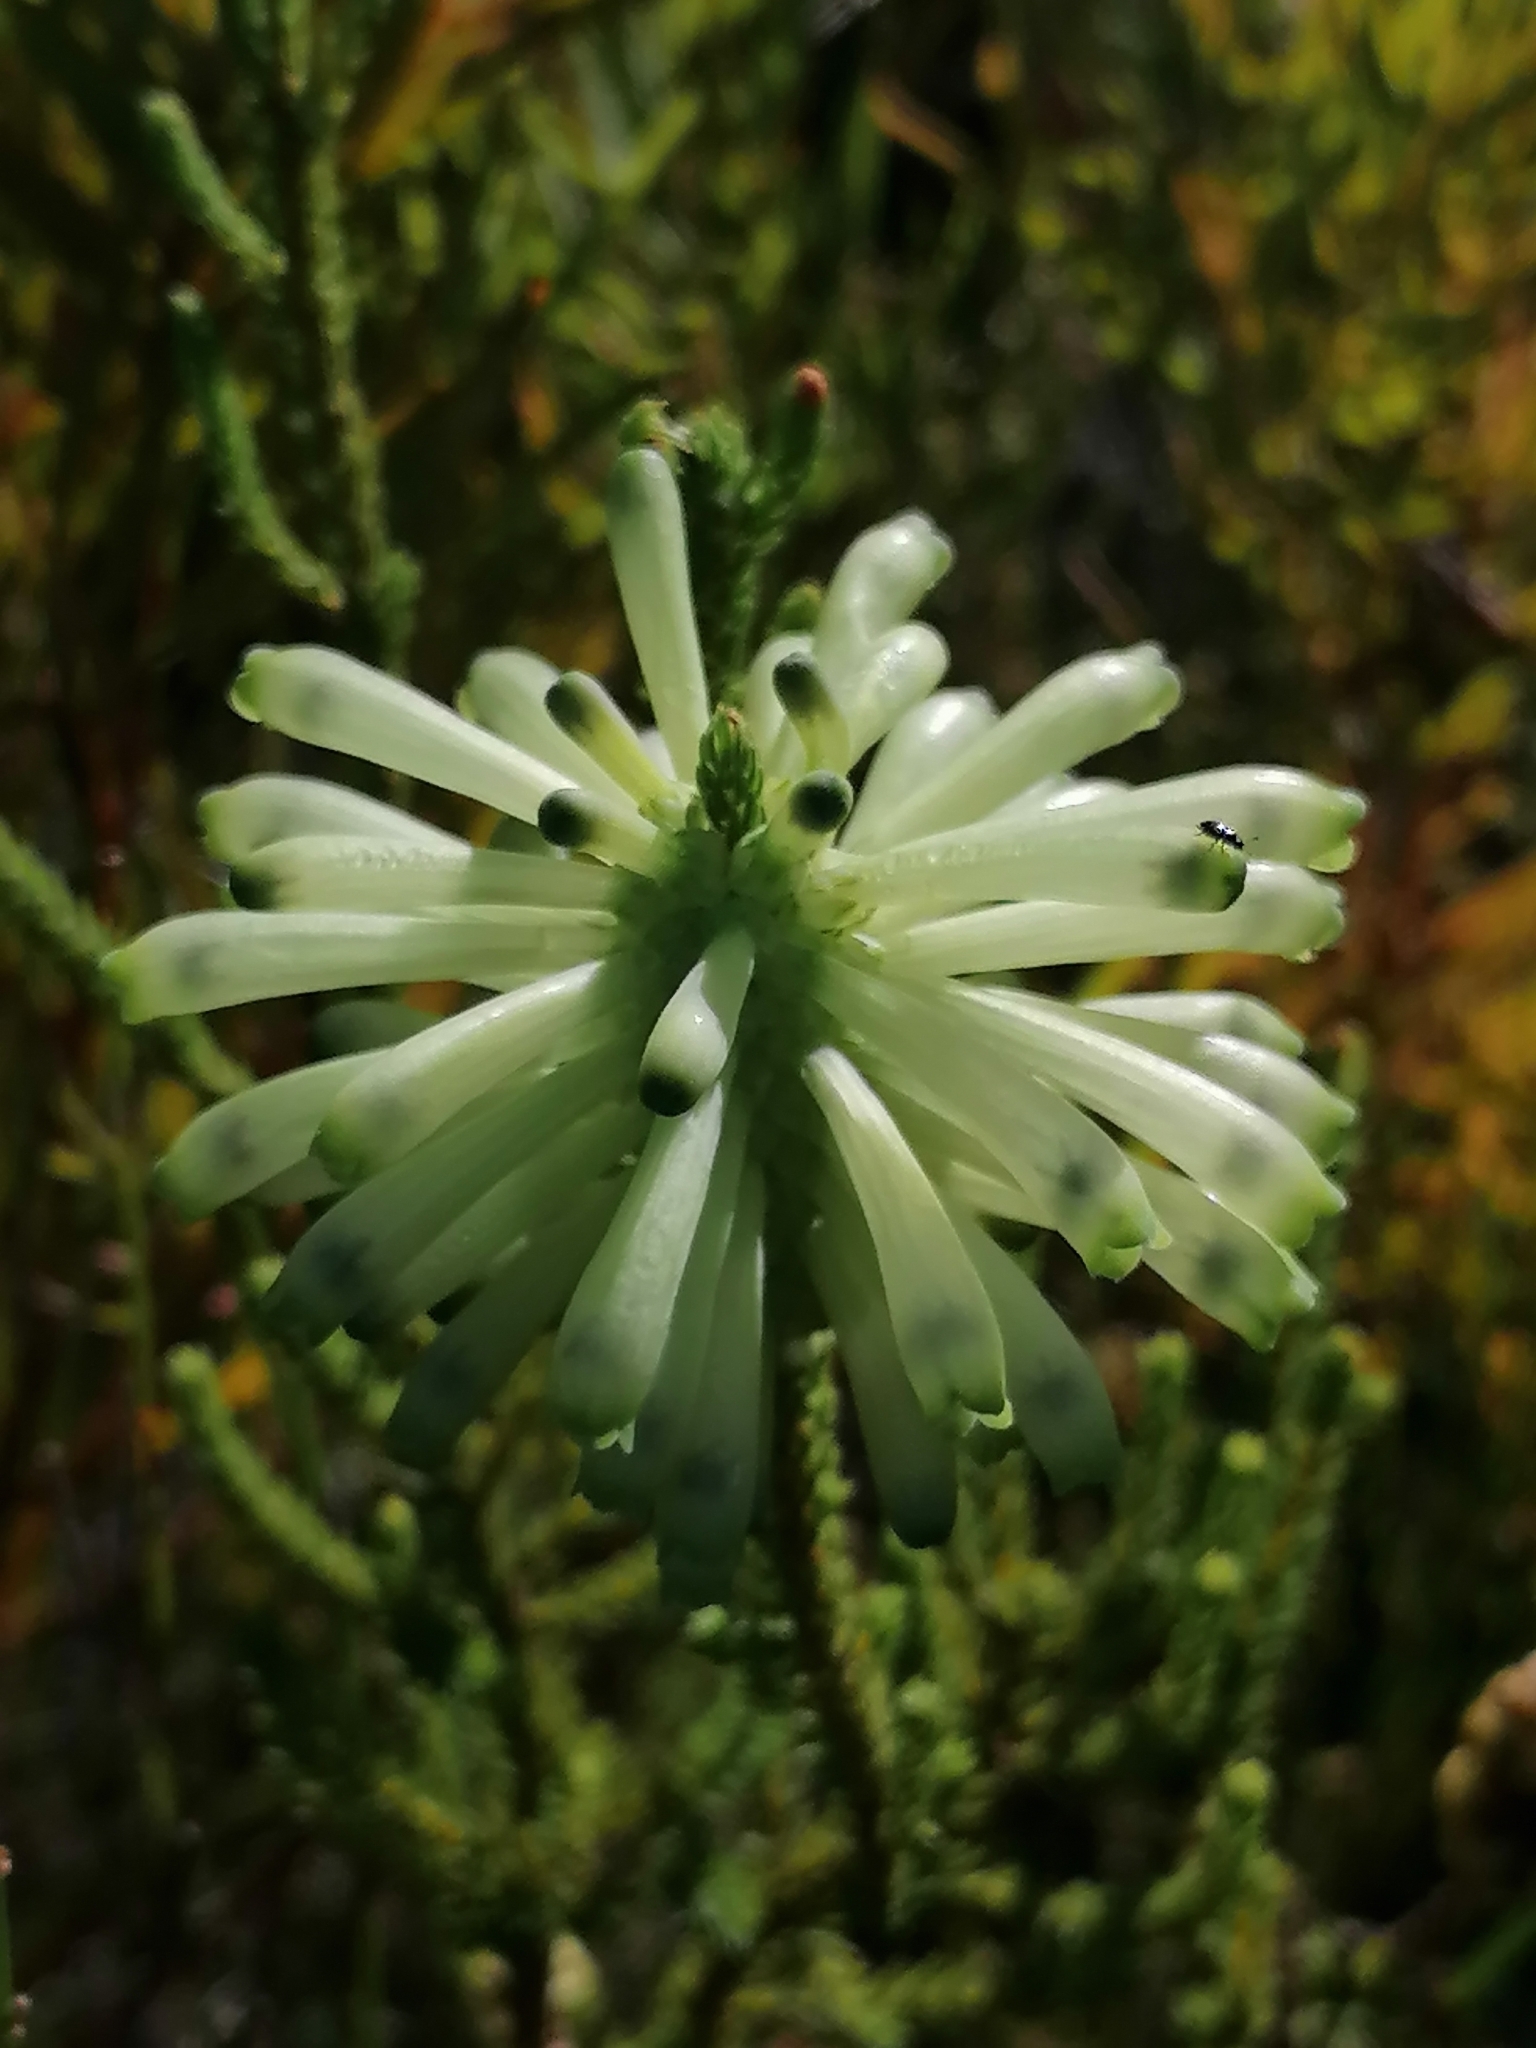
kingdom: Plantae
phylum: Tracheophyta
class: Magnoliopsida
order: Ericales
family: Ericaceae
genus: Erica
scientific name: Erica sessiliflora
